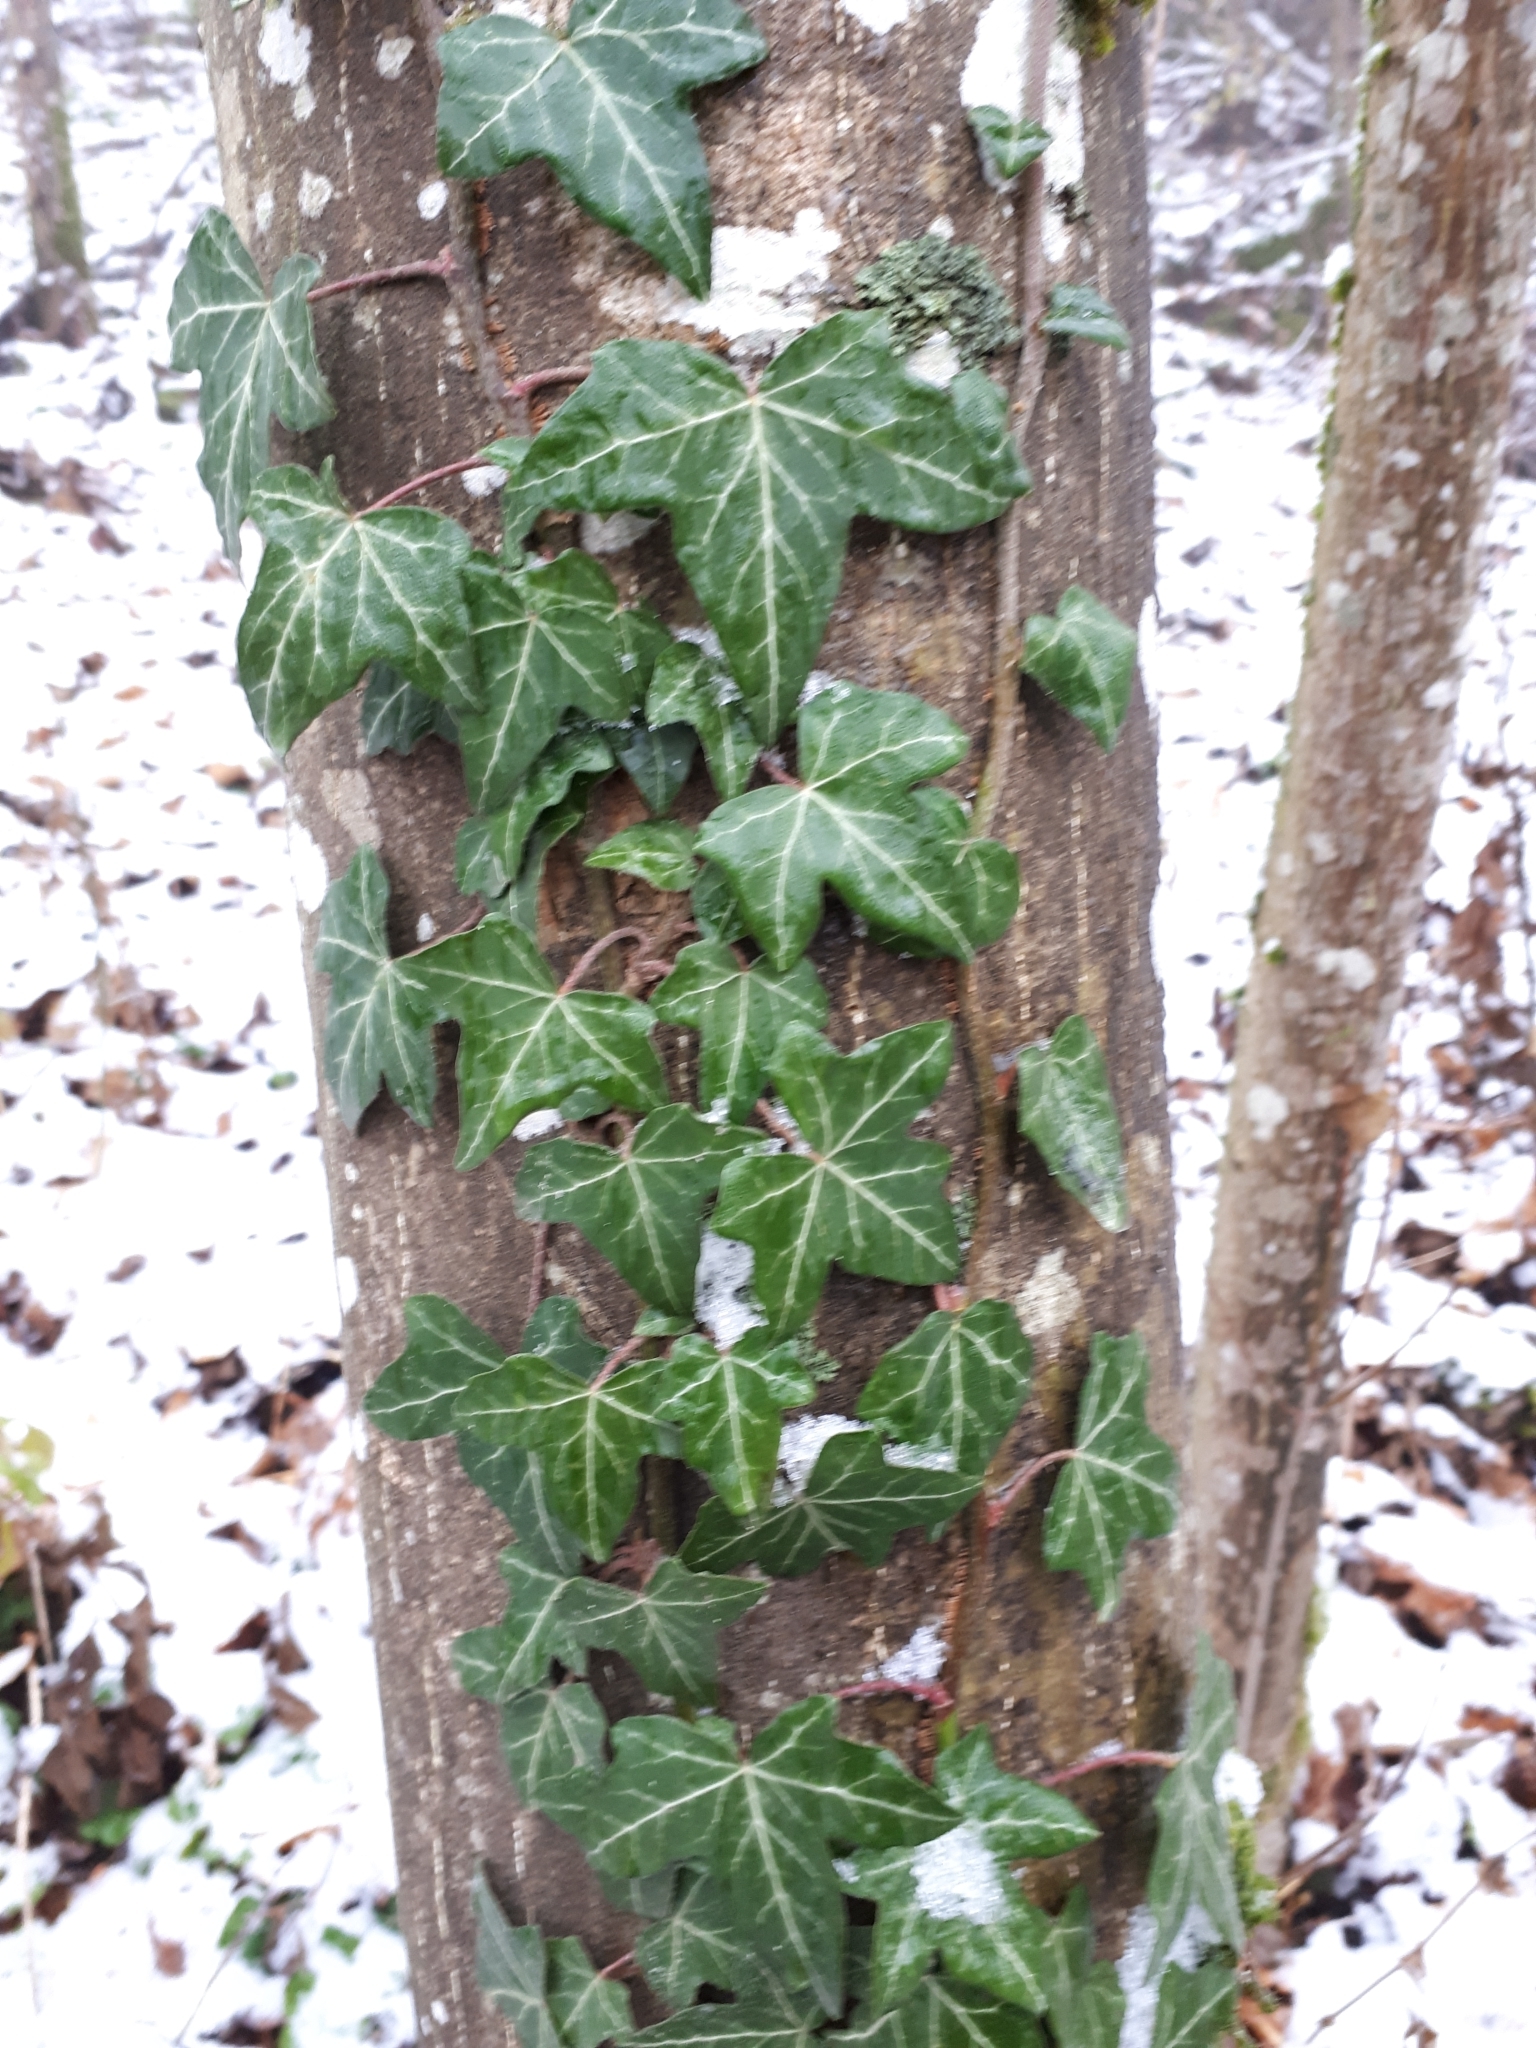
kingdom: Plantae
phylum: Tracheophyta
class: Magnoliopsida
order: Apiales
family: Araliaceae
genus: Hedera
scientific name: Hedera helix
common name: Ivy
